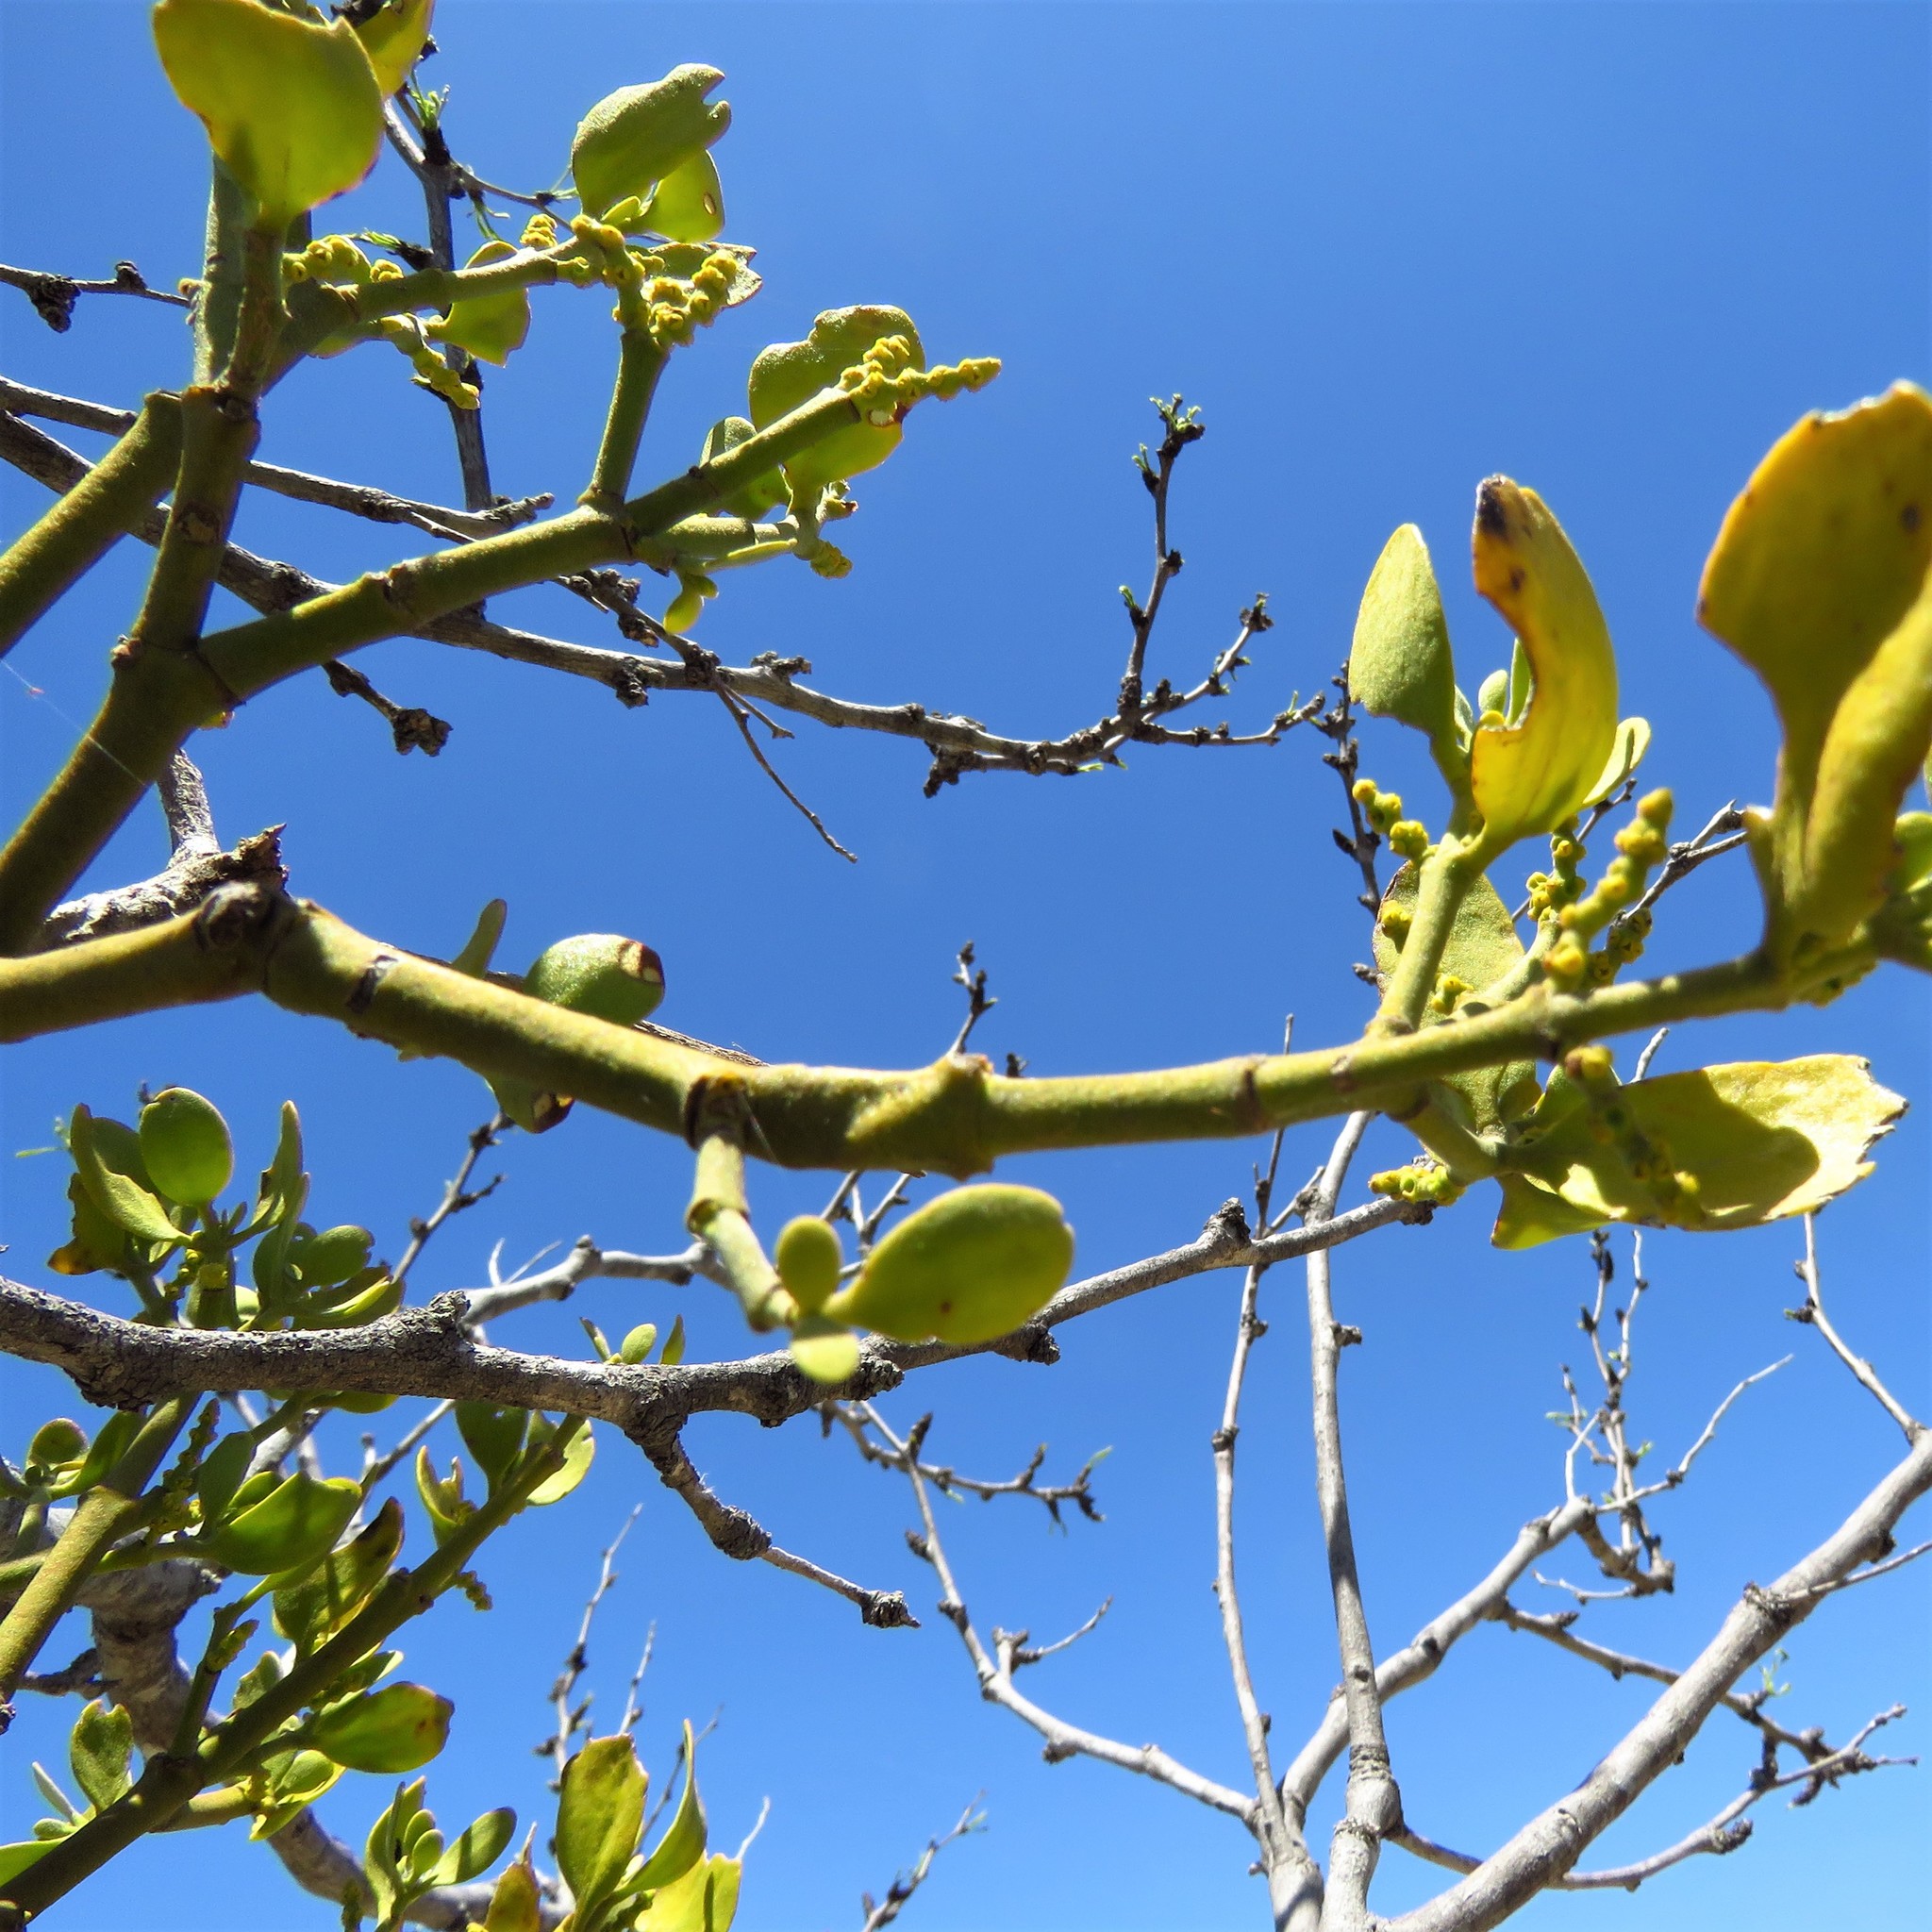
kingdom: Plantae
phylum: Tracheophyta
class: Magnoliopsida
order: Santalales
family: Viscaceae
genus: Phoradendron
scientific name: Phoradendron leucarpum
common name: Pacific mistletoe
